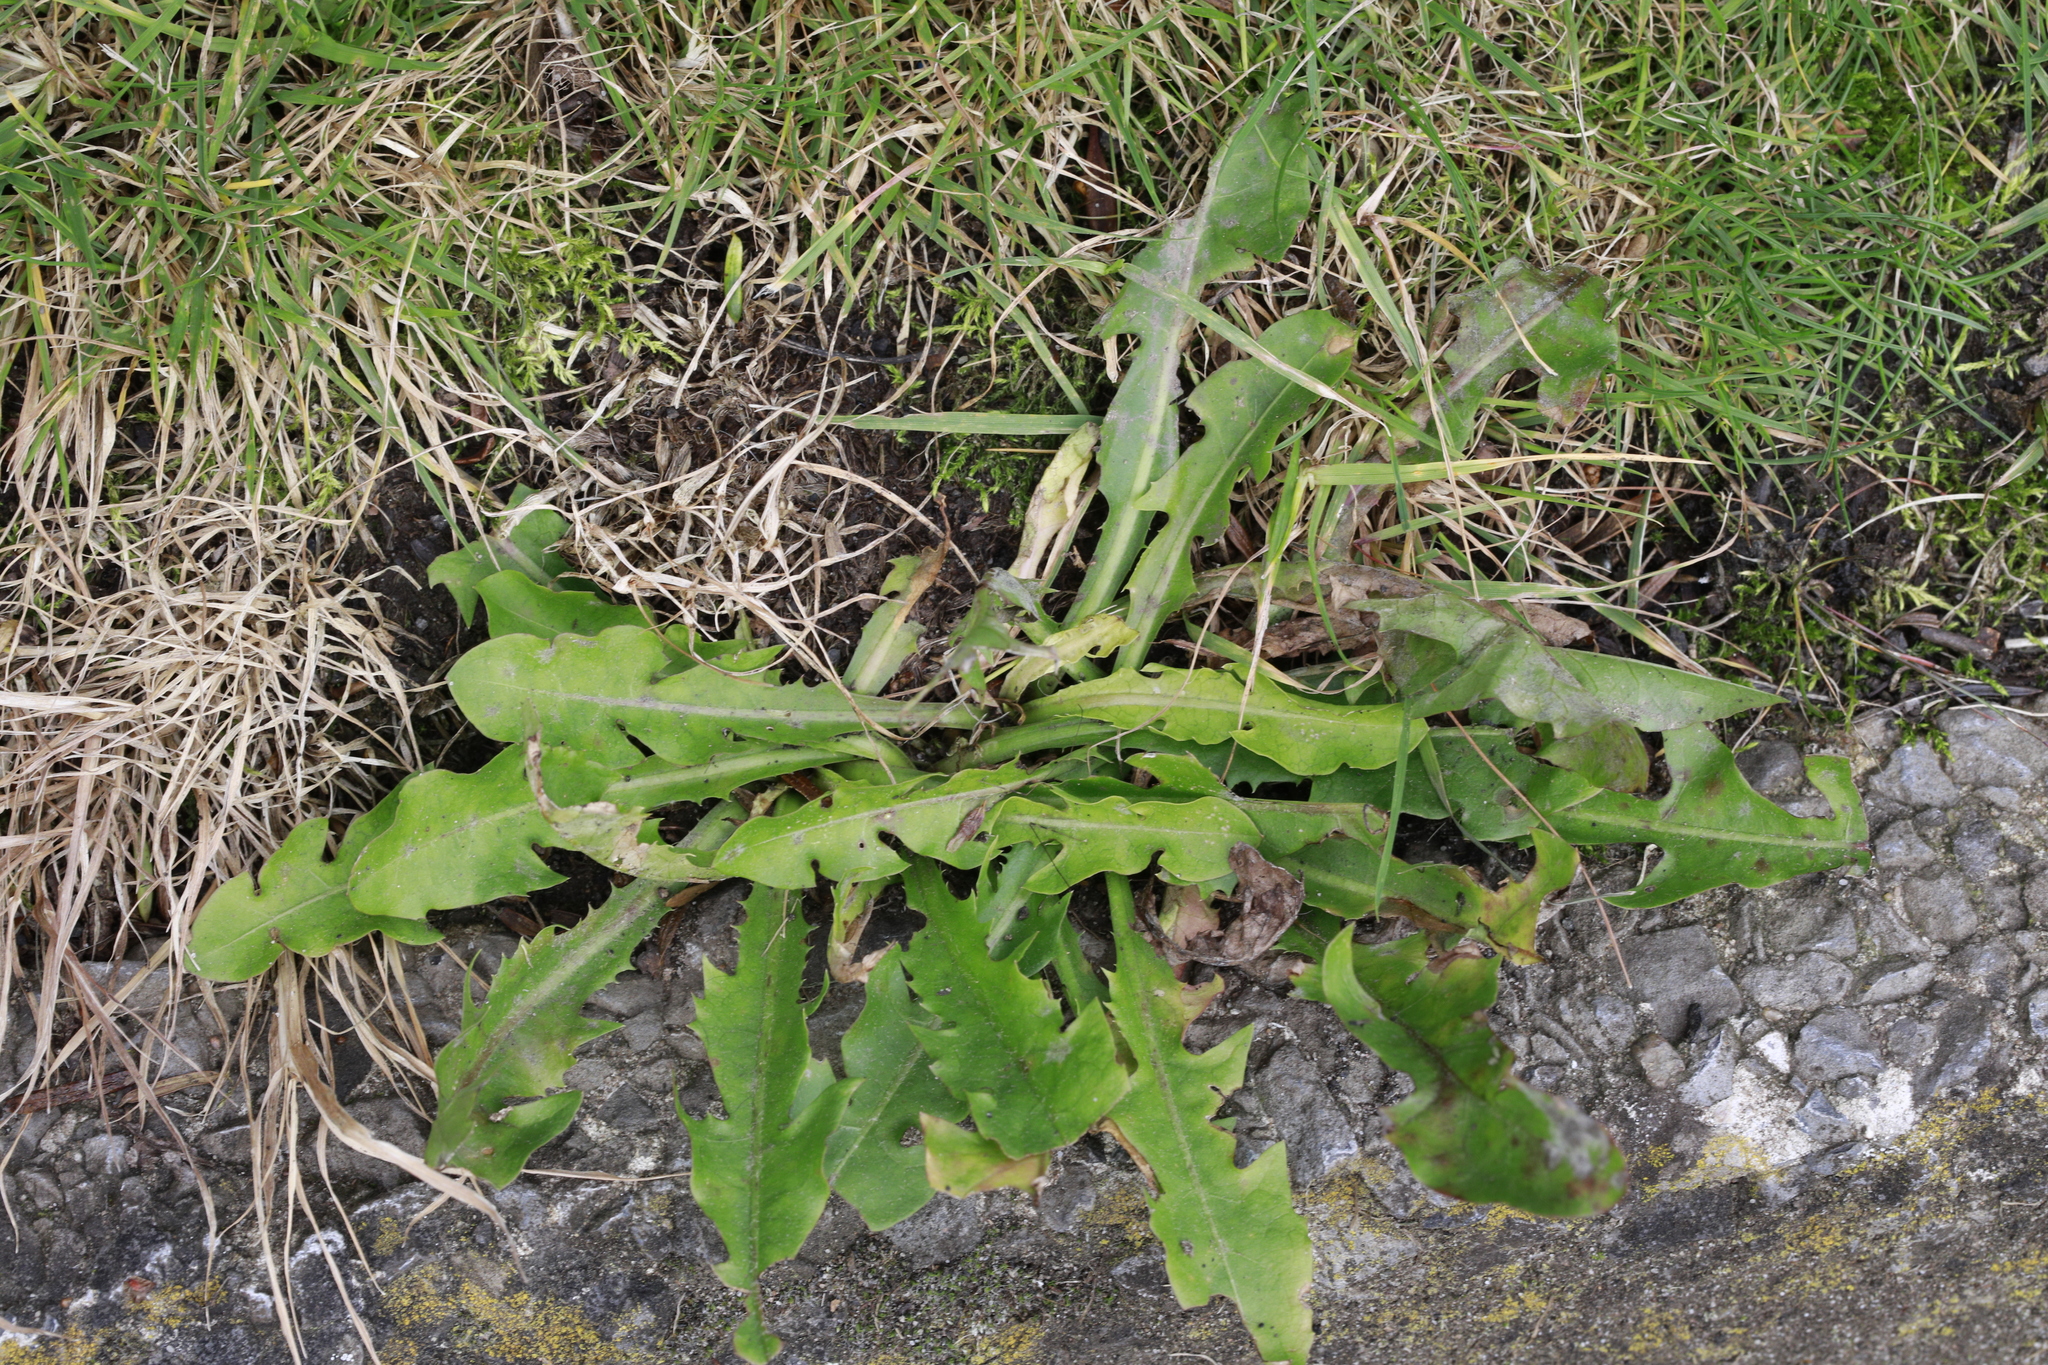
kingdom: Plantae
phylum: Tracheophyta
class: Magnoliopsida
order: Asterales
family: Asteraceae
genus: Taraxacum
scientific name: Taraxacum officinale
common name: Common dandelion
